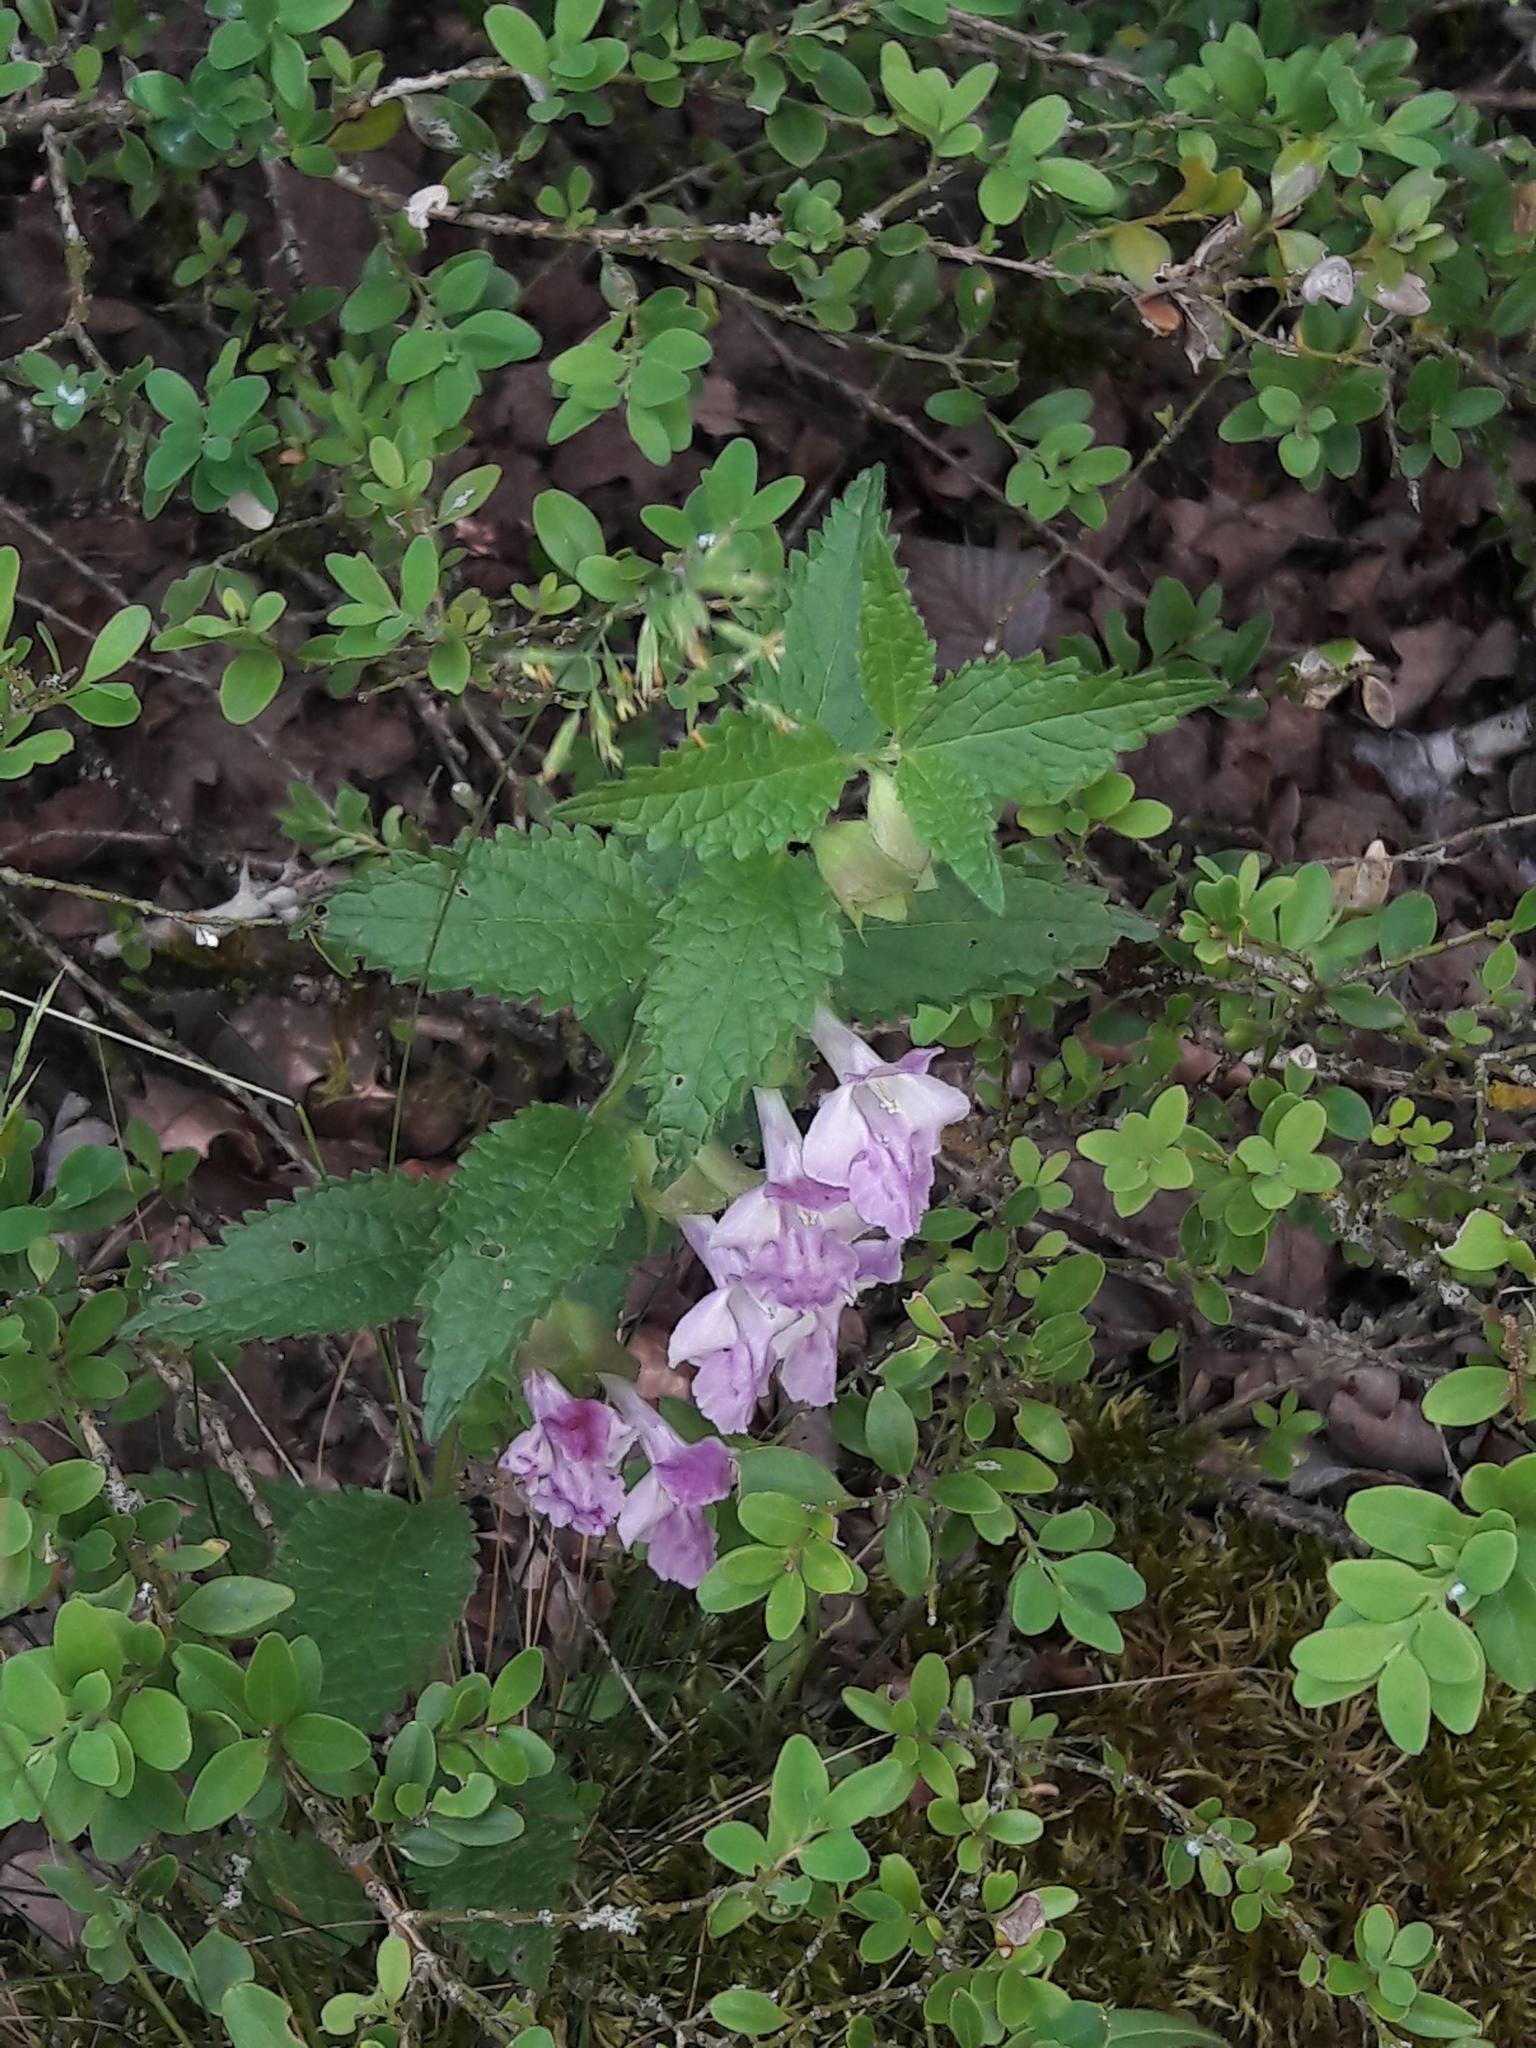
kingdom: Plantae
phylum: Tracheophyta
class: Magnoliopsida
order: Lamiales
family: Lamiaceae
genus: Melittis
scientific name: Melittis melissophyllum
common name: Bastard balm
